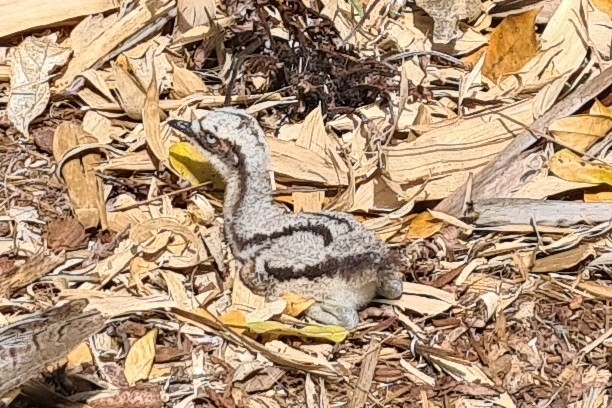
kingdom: Animalia
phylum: Chordata
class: Aves
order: Charadriiformes
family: Burhinidae
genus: Burhinus
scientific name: Burhinus grallarius
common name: Bush stone-curlew
